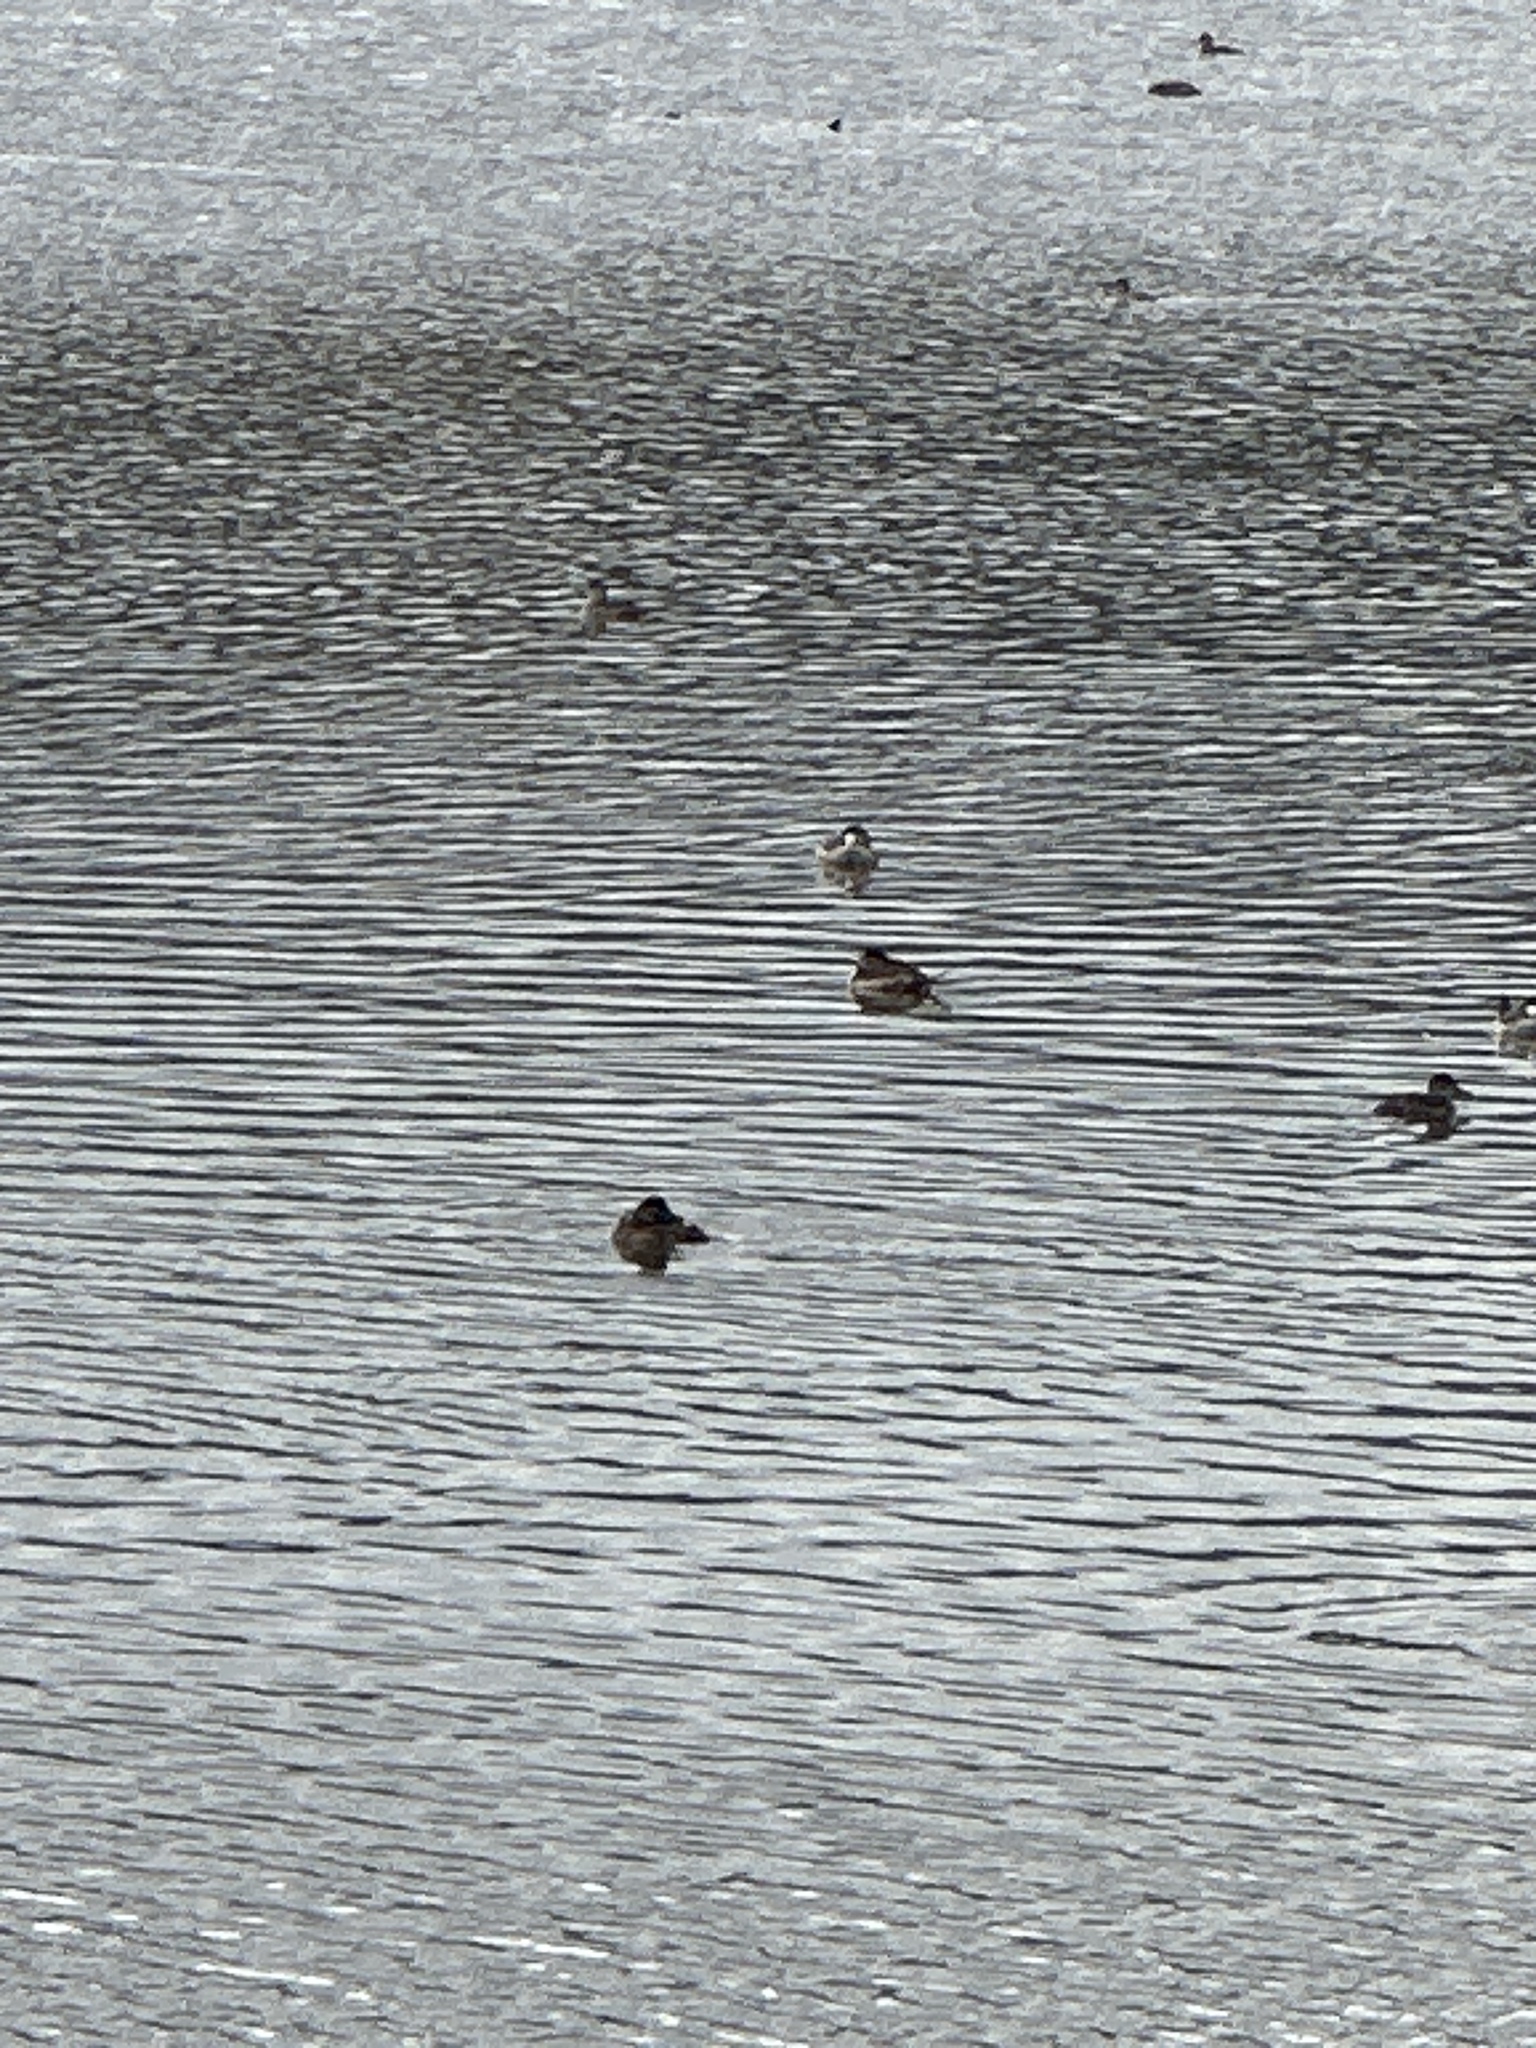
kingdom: Animalia
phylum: Chordata
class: Aves
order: Anseriformes
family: Anatidae
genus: Oxyura
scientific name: Oxyura jamaicensis
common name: Ruddy duck
